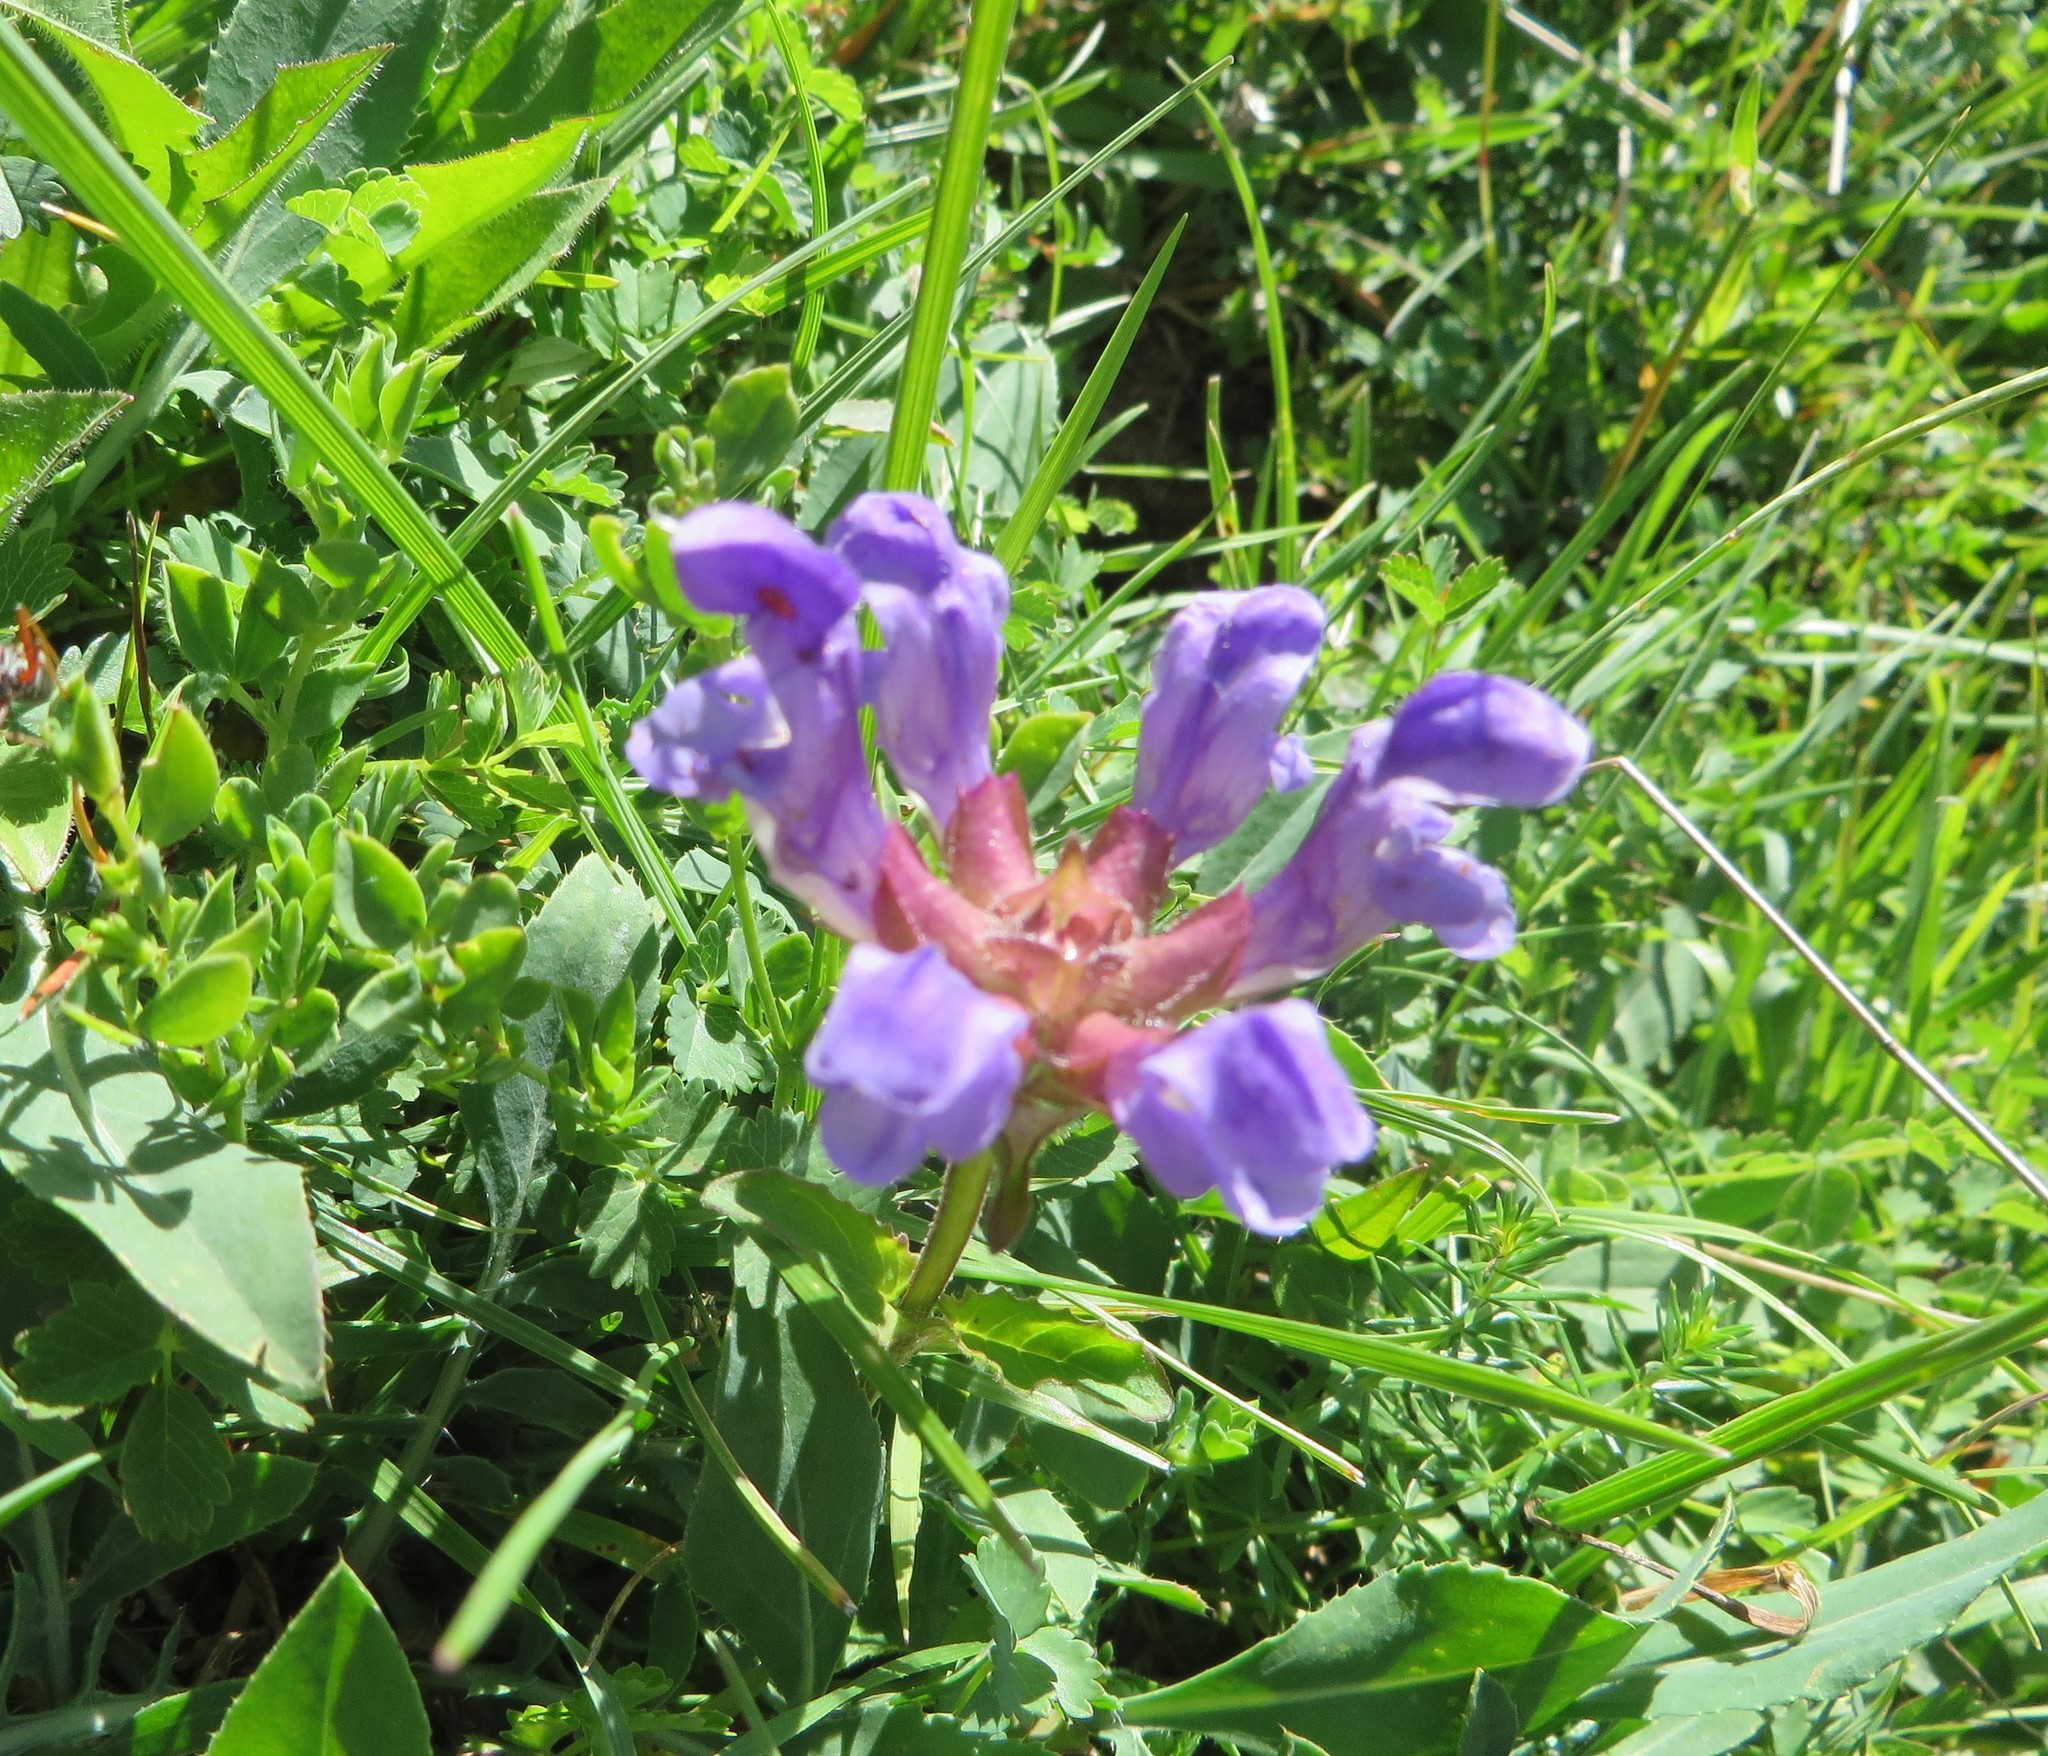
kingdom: Plantae
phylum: Tracheophyta
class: Magnoliopsida
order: Lamiales
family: Lamiaceae
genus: Prunella
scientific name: Prunella grandiflora
